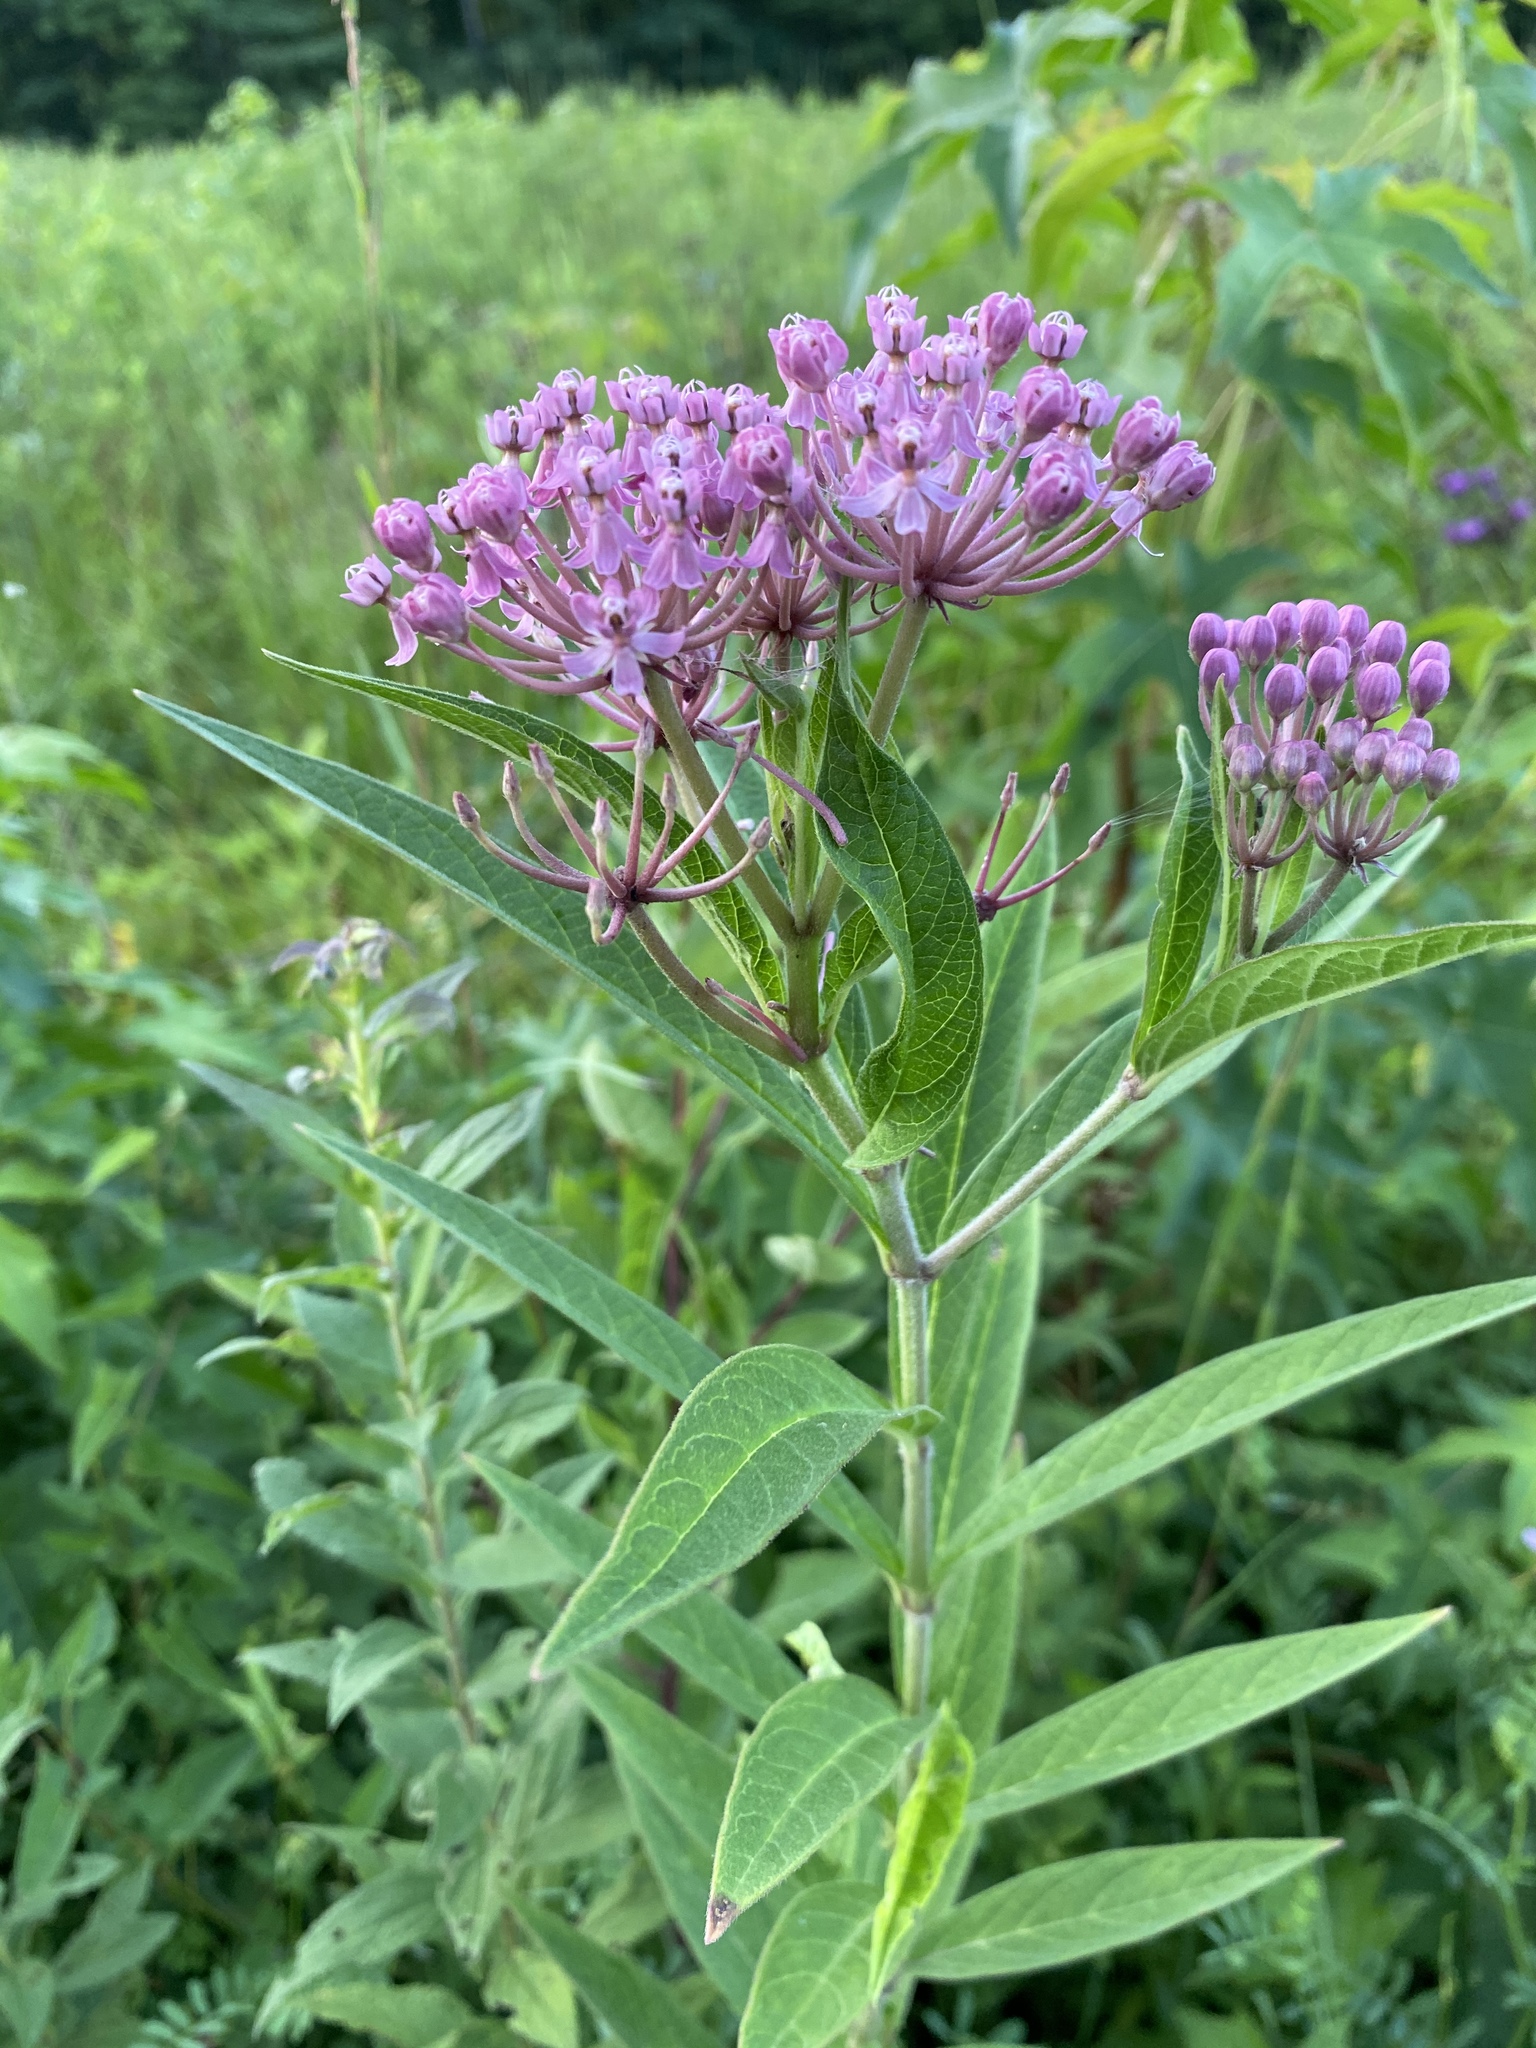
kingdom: Plantae
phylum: Tracheophyta
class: Magnoliopsida
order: Gentianales
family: Apocynaceae
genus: Asclepias
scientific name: Asclepias incarnata
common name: Swamp milkweed
